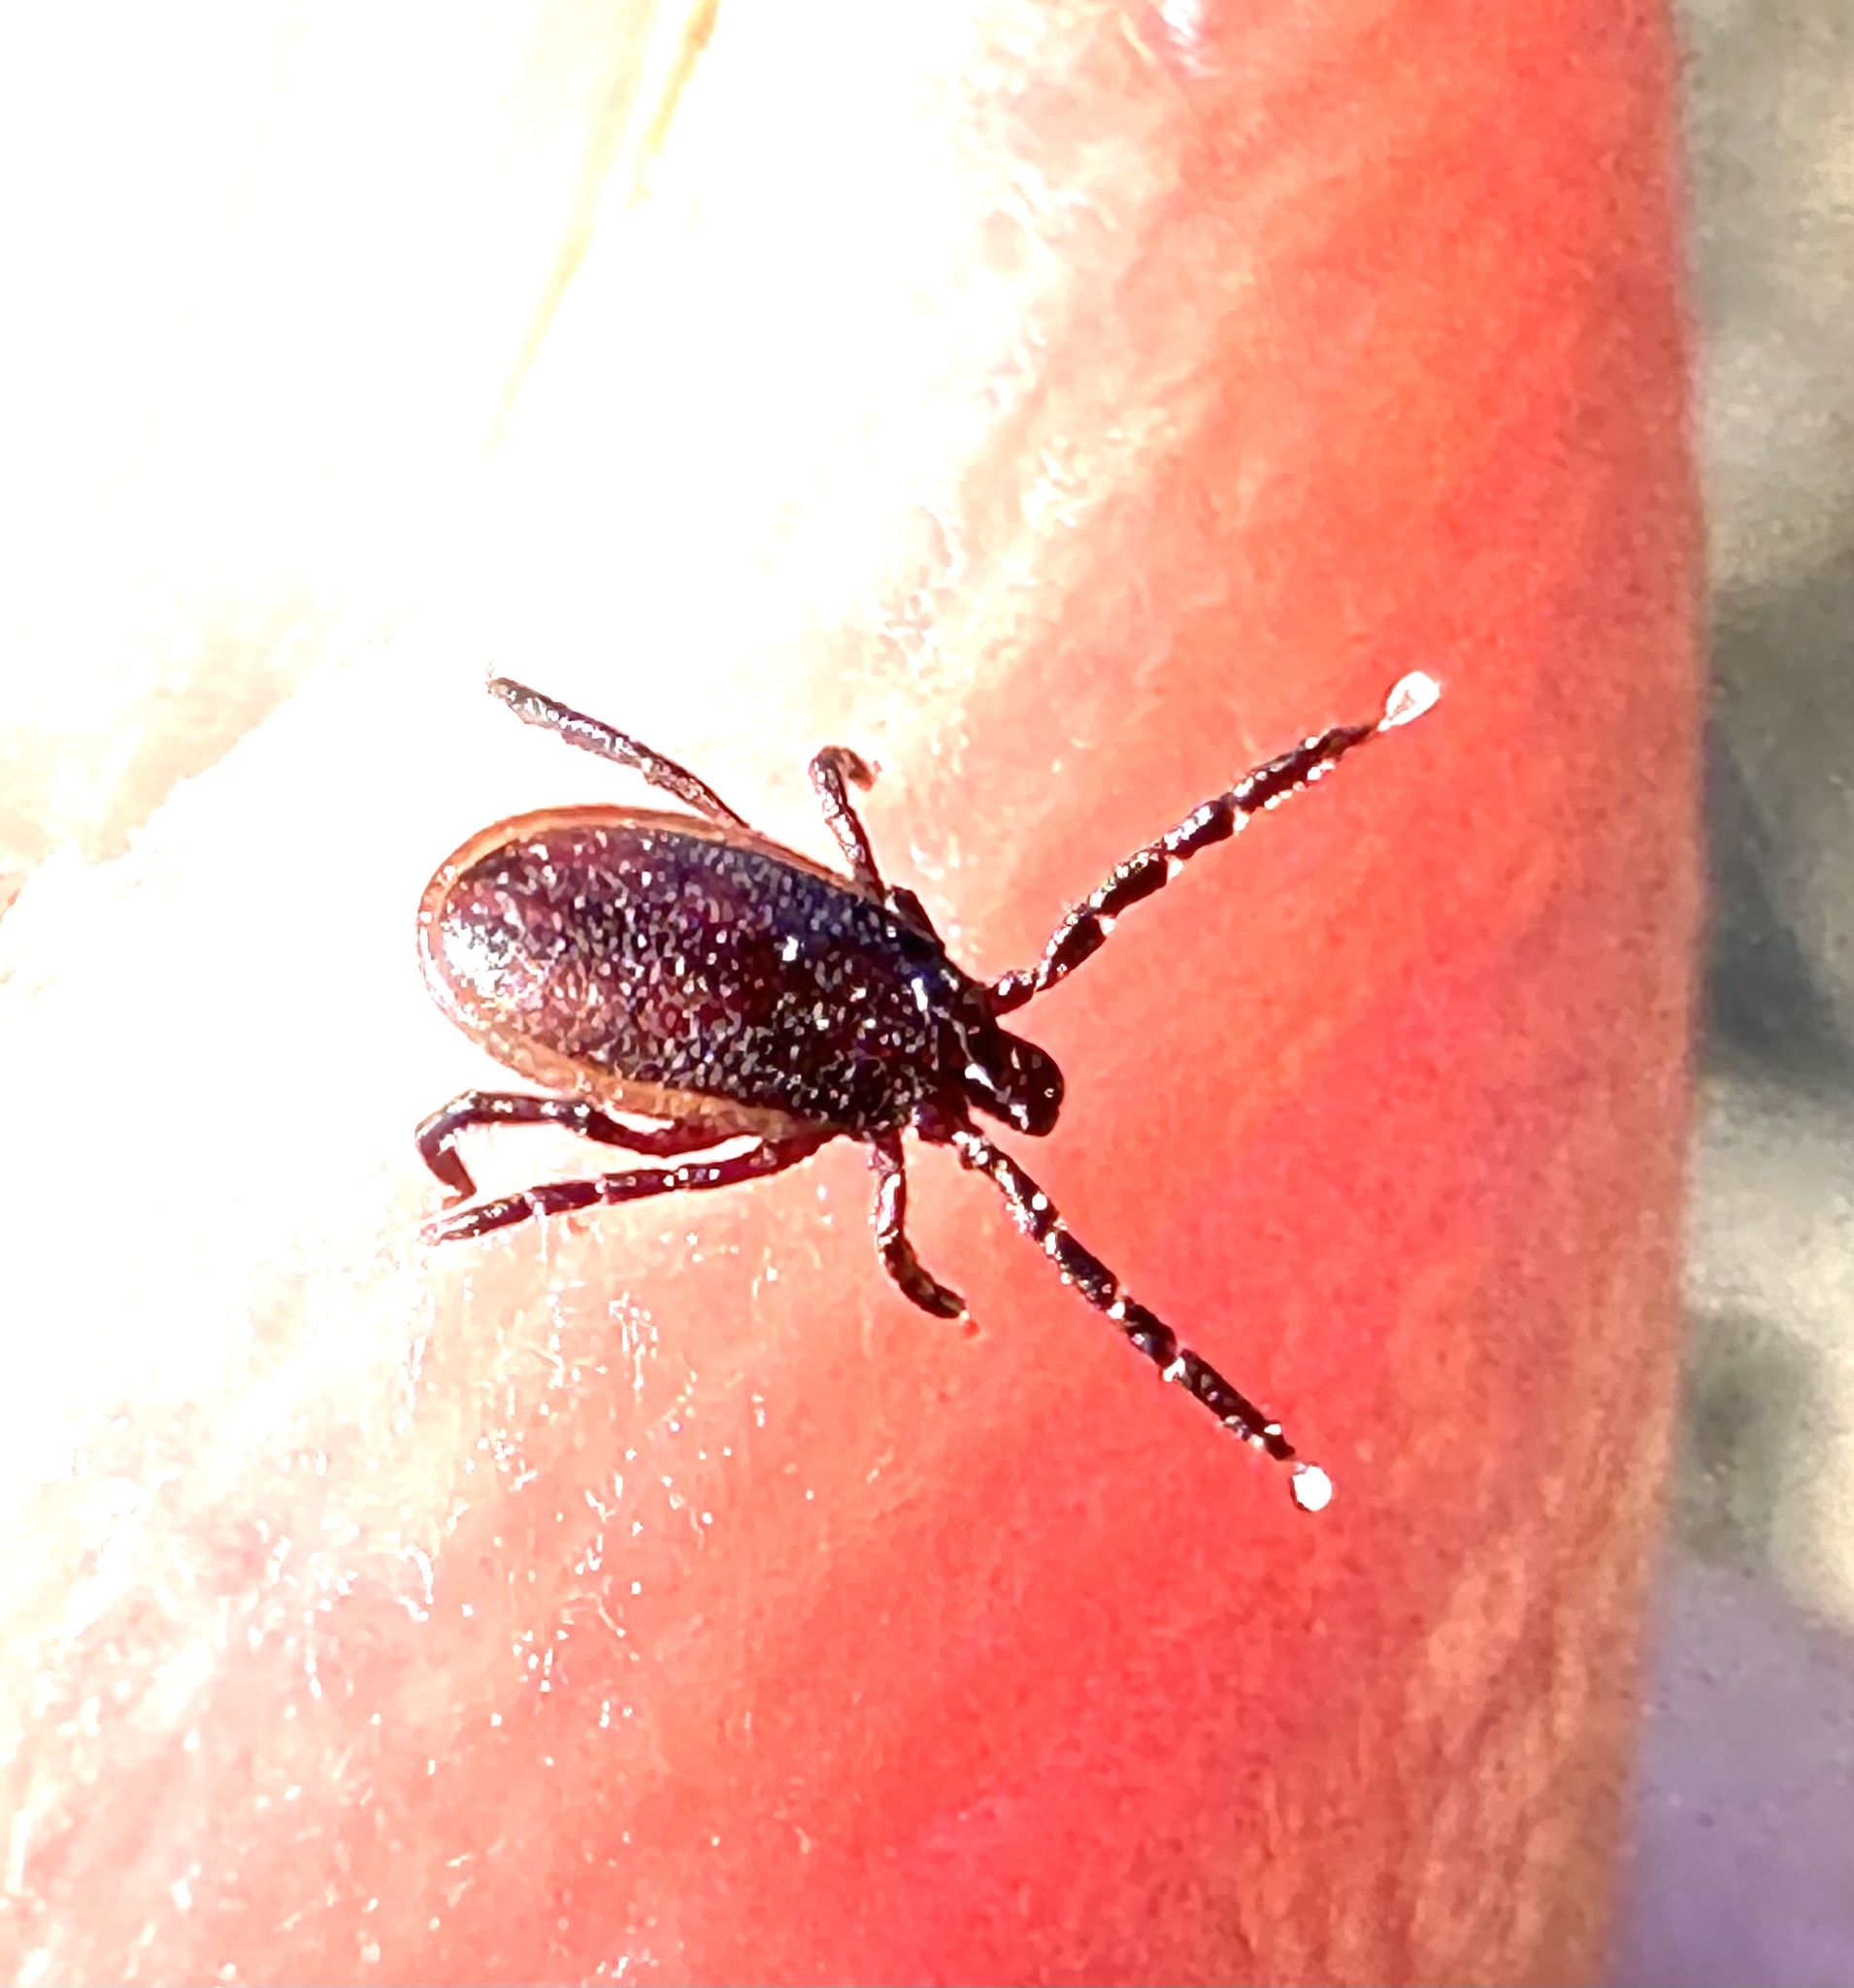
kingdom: Animalia
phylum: Arthropoda
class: Arachnida
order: Ixodida
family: Ixodidae
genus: Ixodes
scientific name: Ixodes pacificus
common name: California black-legged tick
